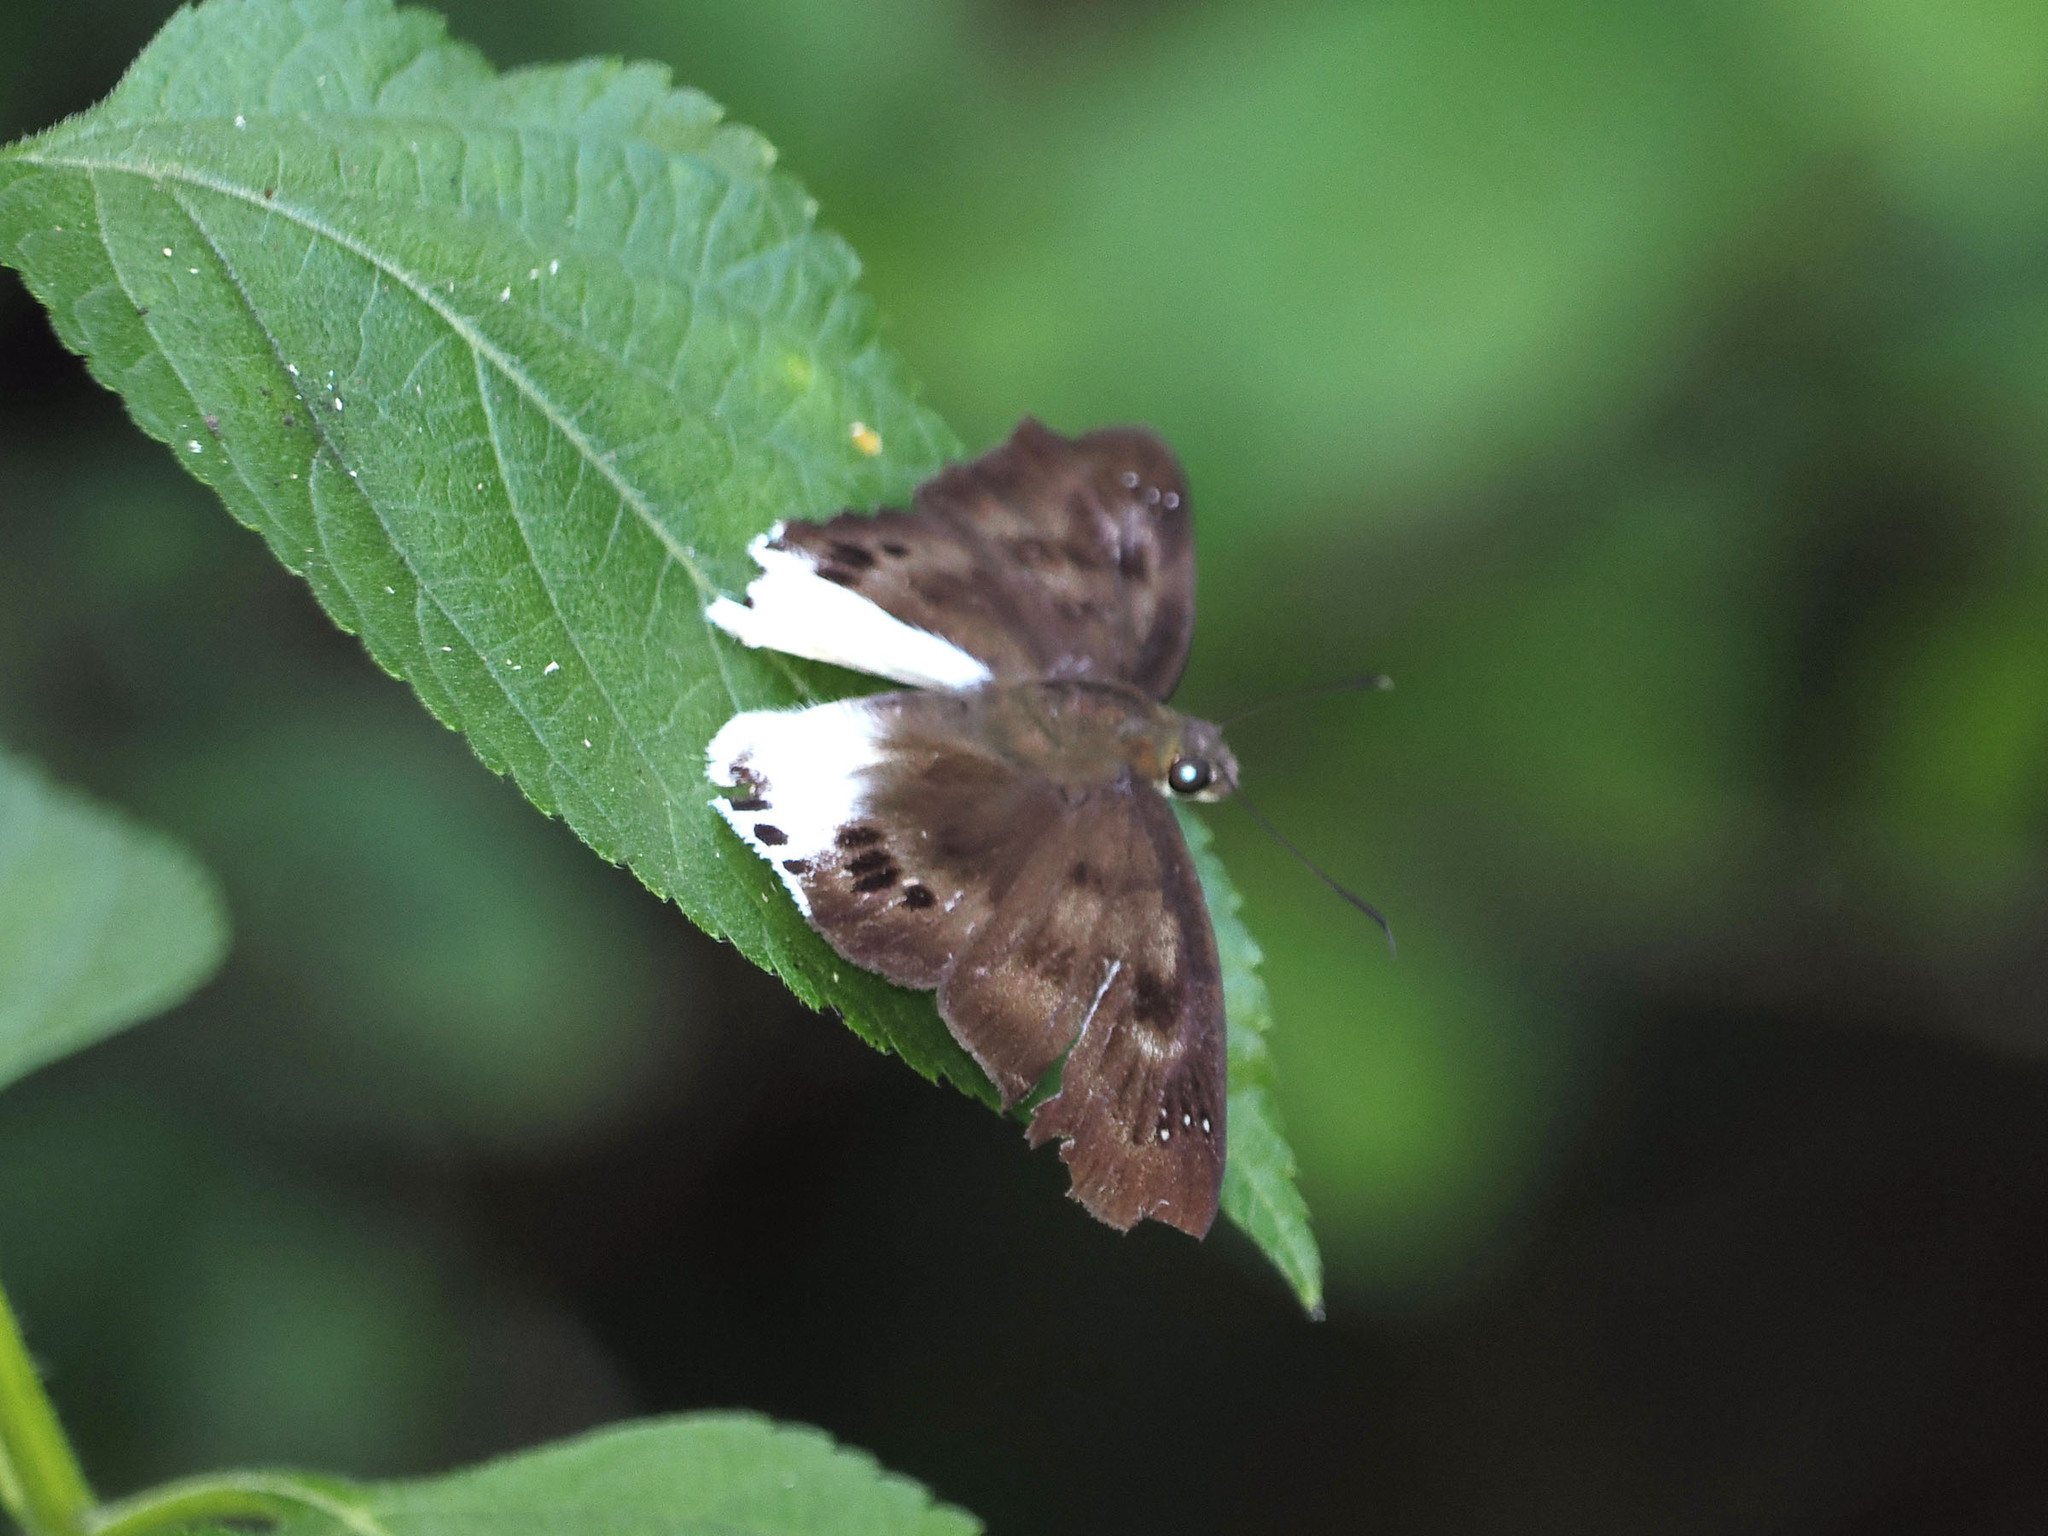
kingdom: Animalia
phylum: Arthropoda
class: Insecta
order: Lepidoptera
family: Hesperiidae
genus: Tagiades
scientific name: Tagiades gana
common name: Suffused snow flat
